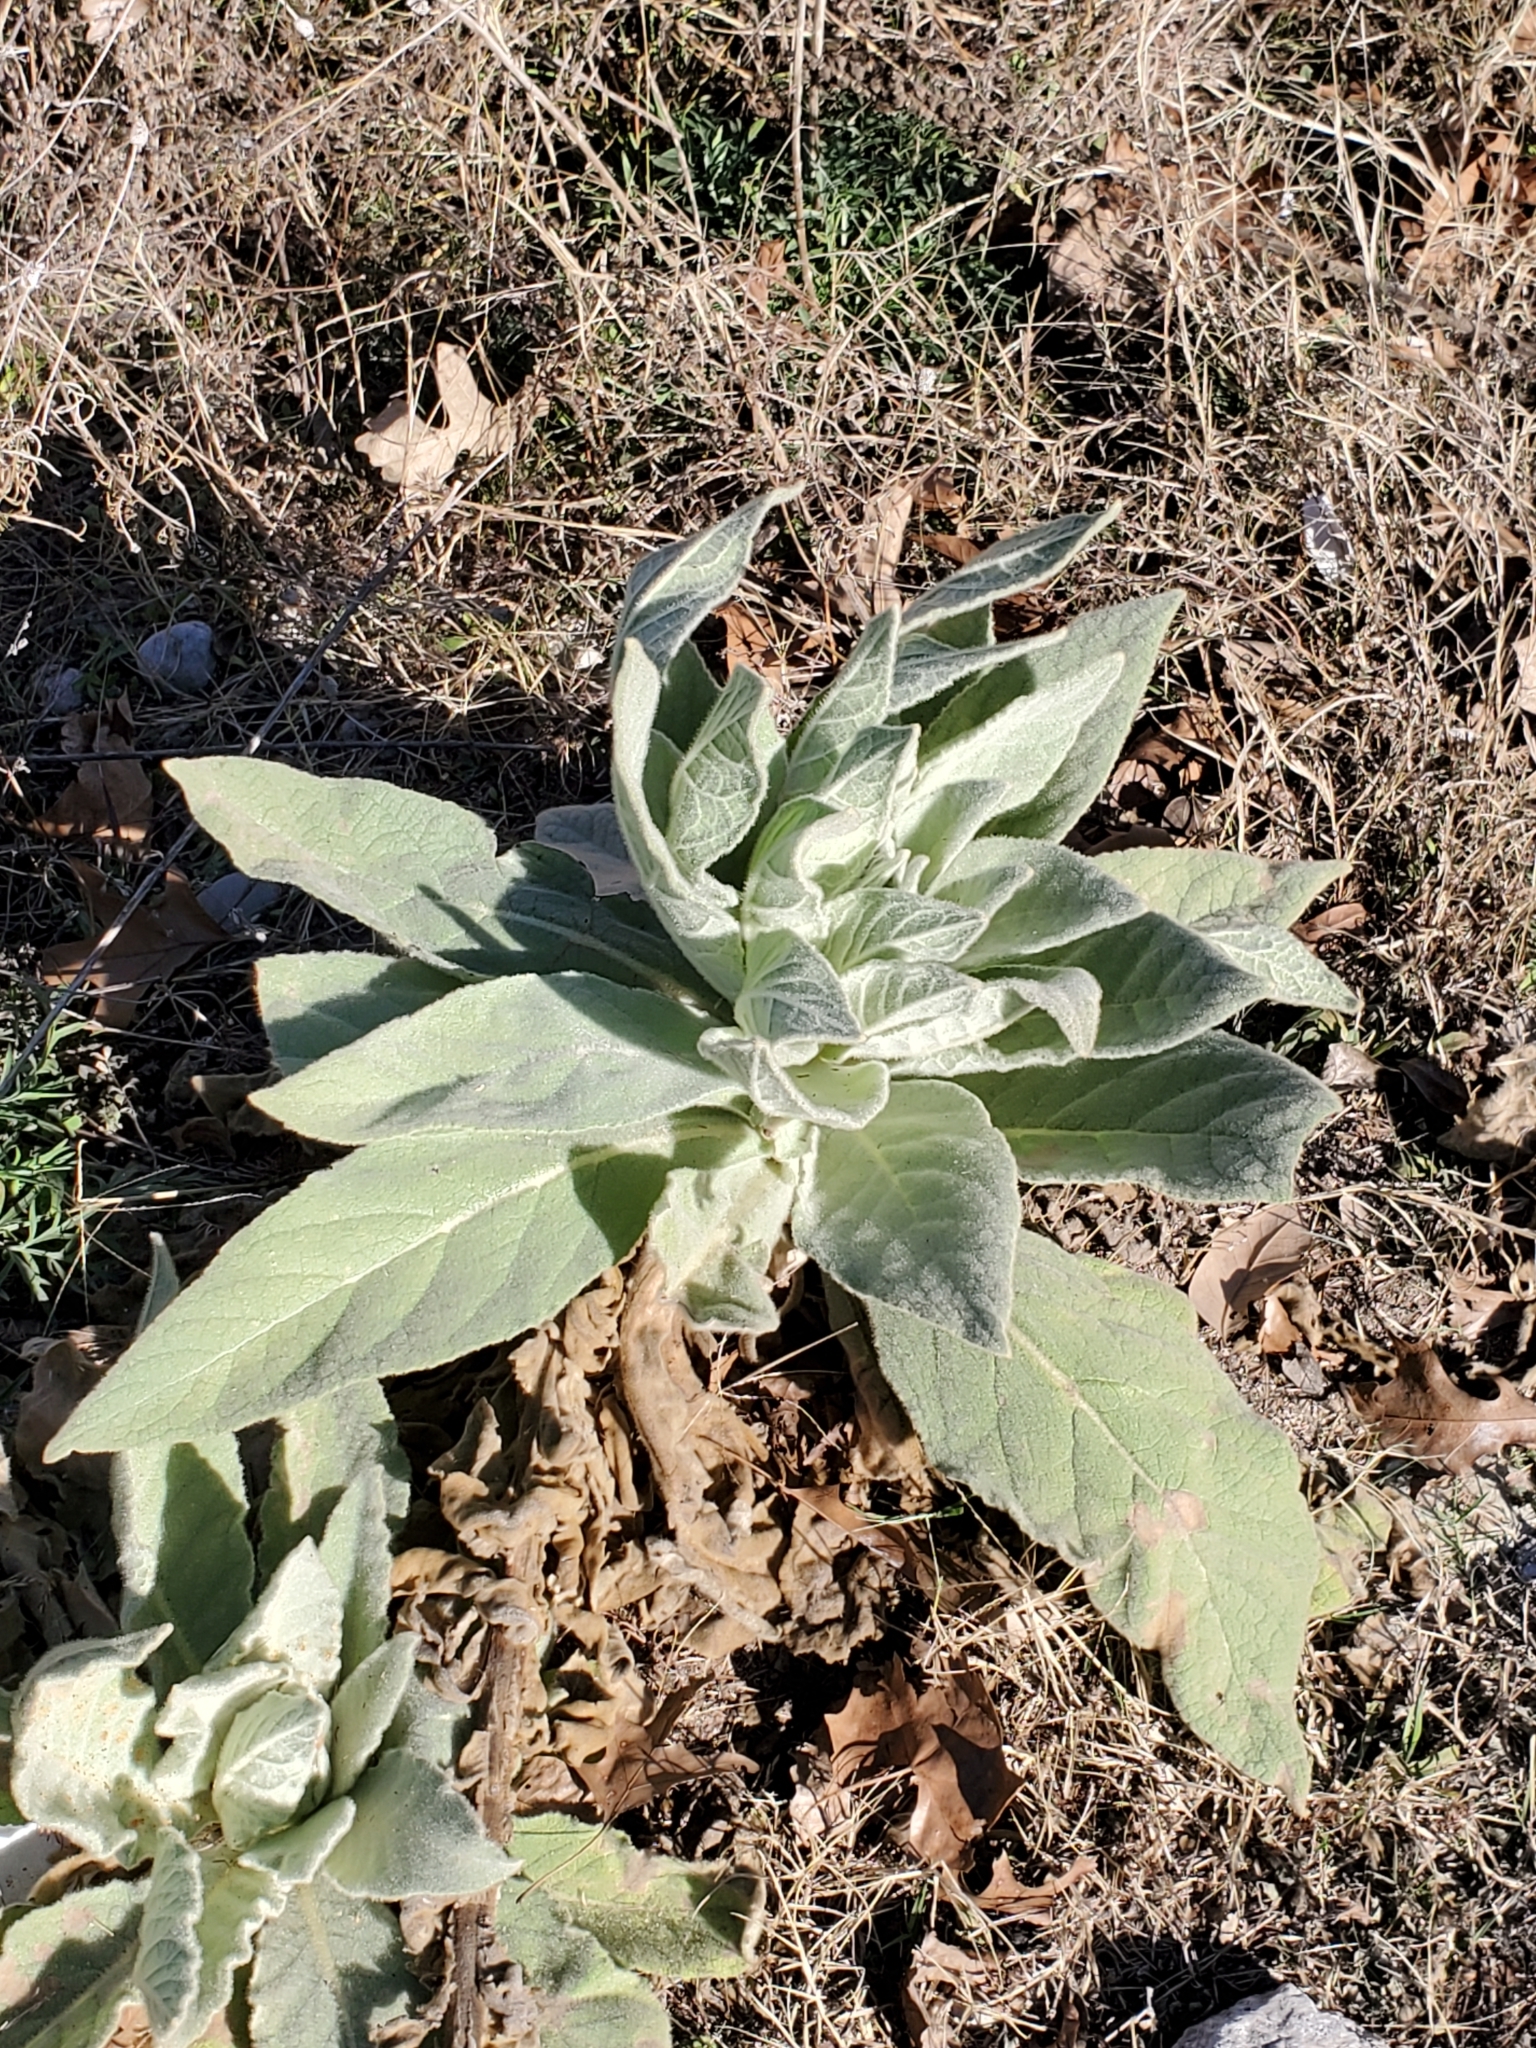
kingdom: Plantae
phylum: Tracheophyta
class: Magnoliopsida
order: Lamiales
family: Scrophulariaceae
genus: Verbascum
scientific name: Verbascum thapsus
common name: Common mullein
